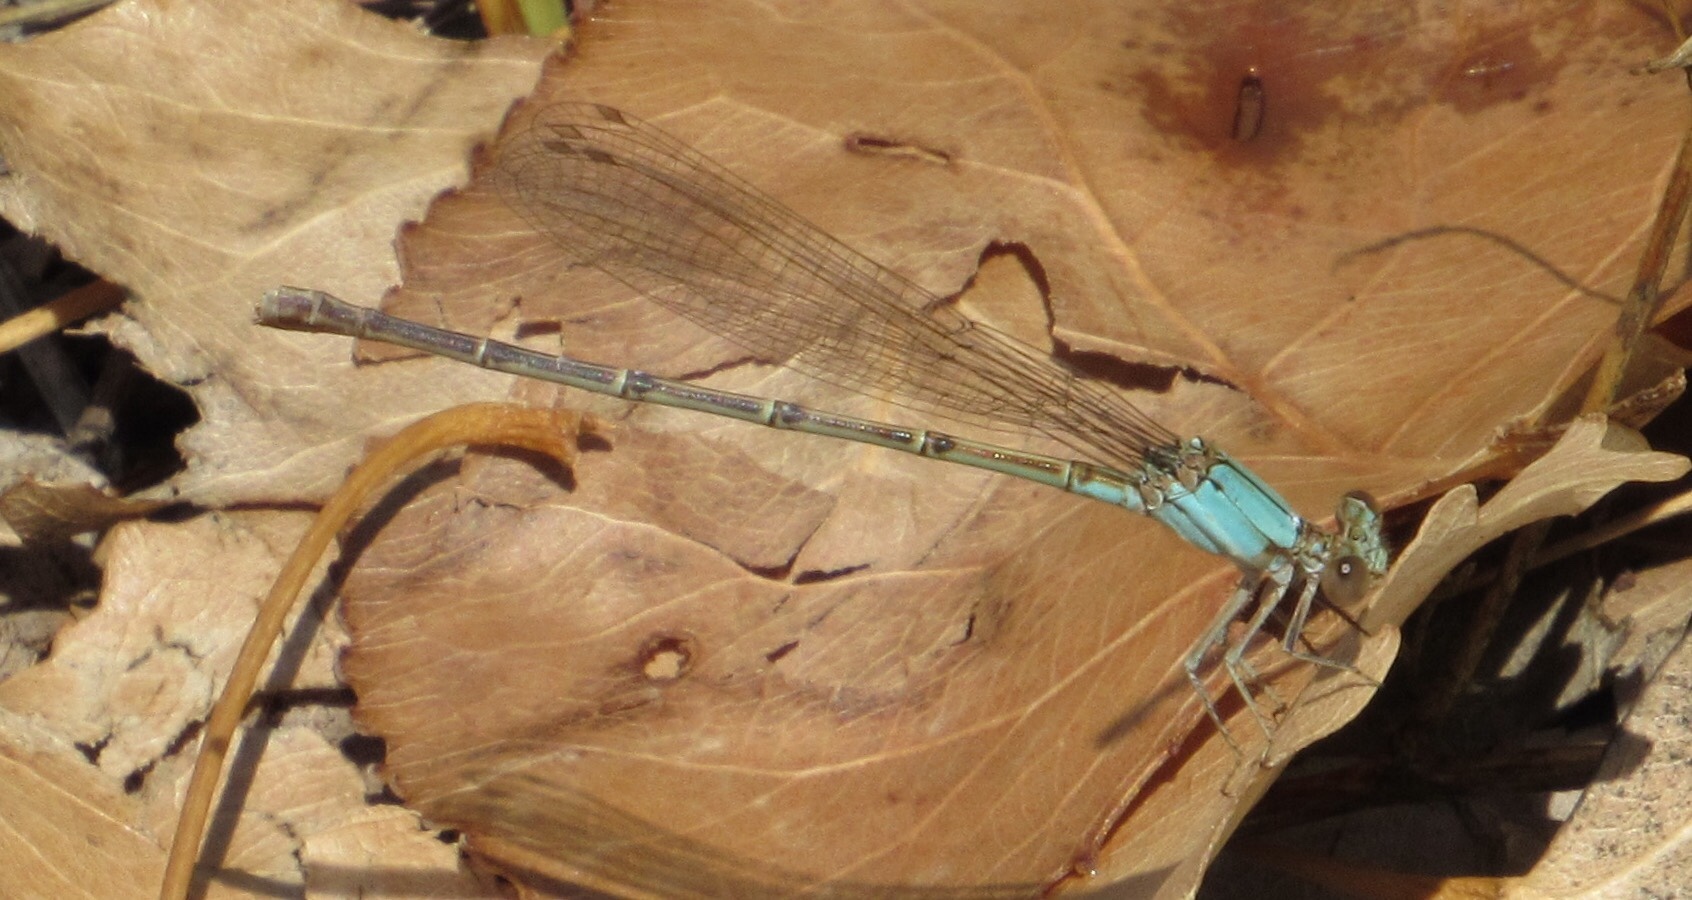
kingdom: Animalia
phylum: Arthropoda
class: Insecta
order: Odonata
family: Coenagrionidae
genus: Argia
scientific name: Argia apicalis
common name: Blue-fronted dancer
